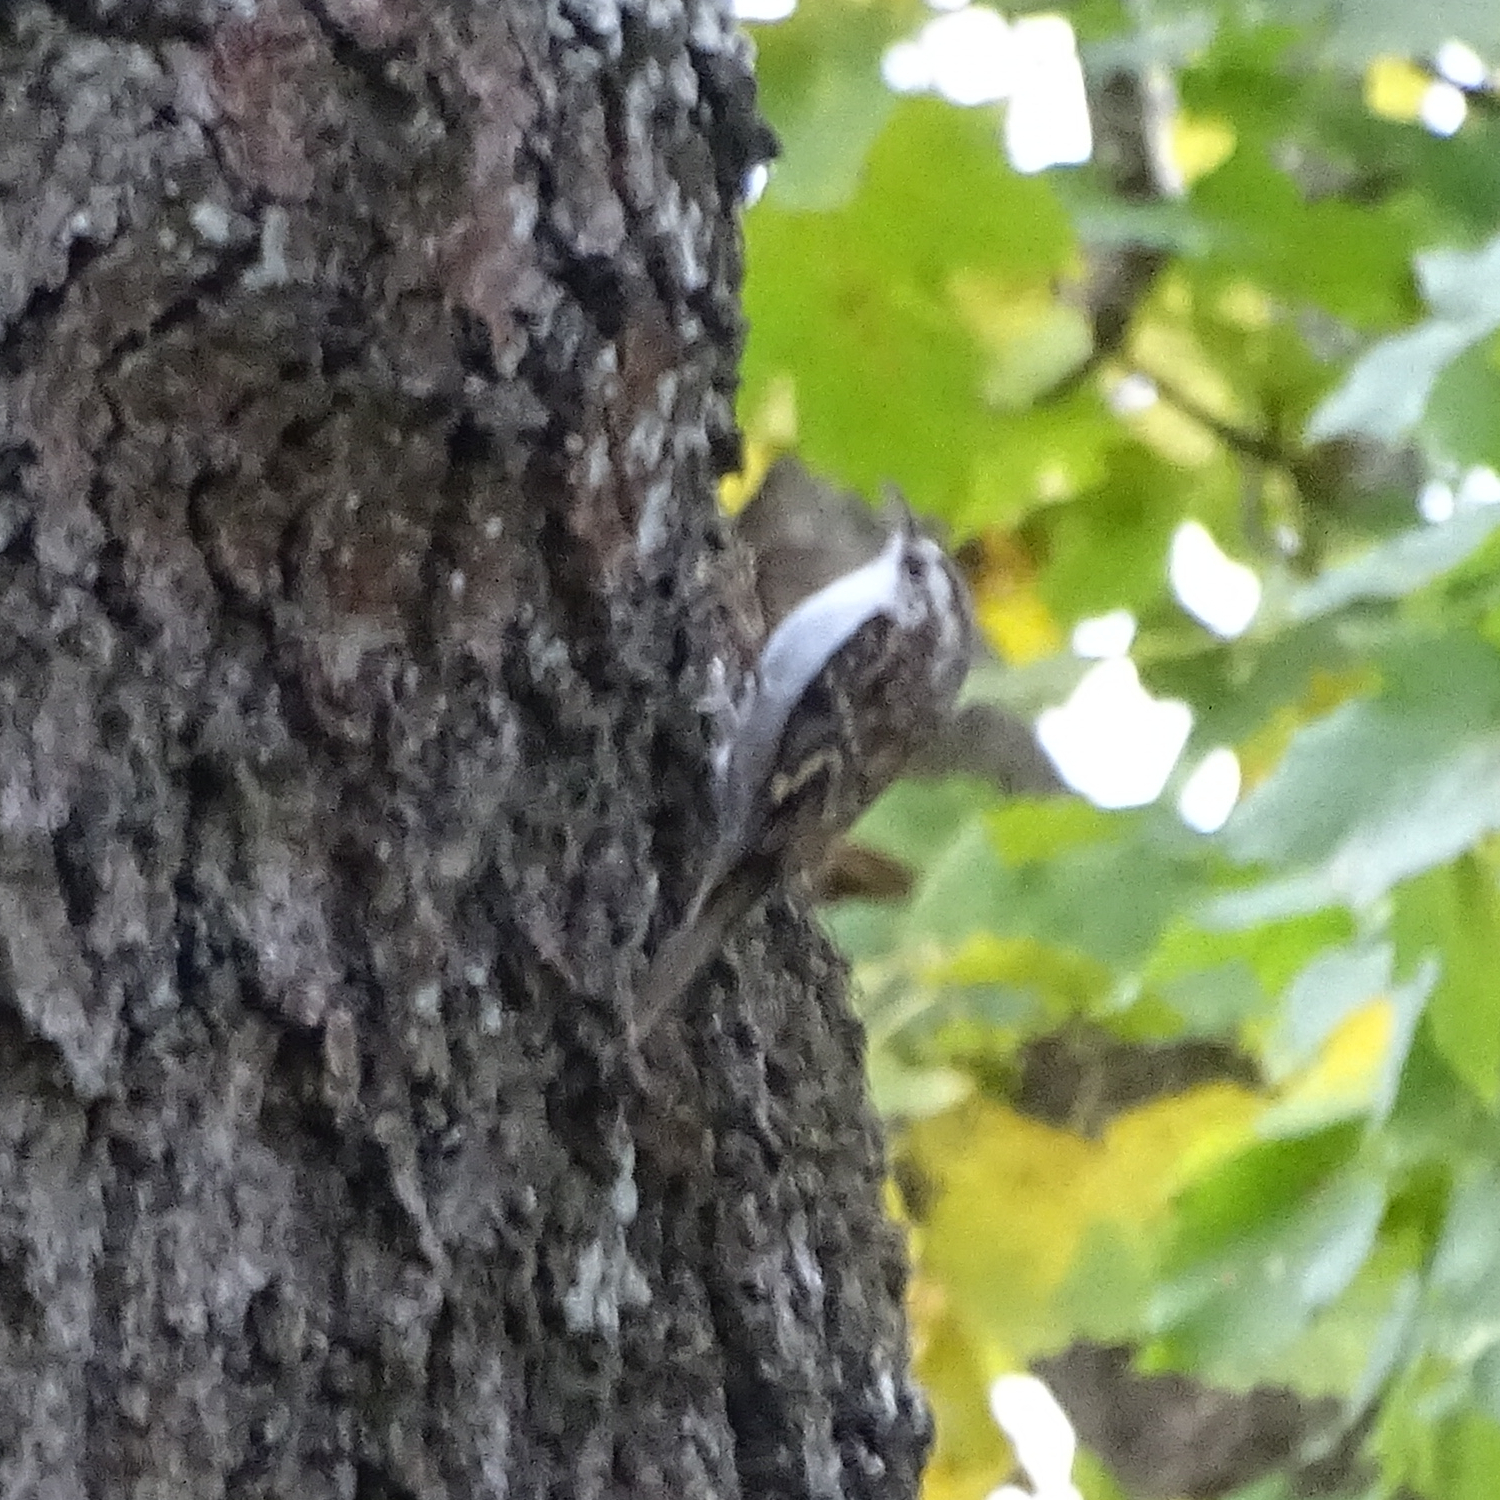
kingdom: Animalia
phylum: Chordata
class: Aves
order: Passeriformes
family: Certhiidae
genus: Certhia
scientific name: Certhia familiaris
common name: Eurasian treecreeper
